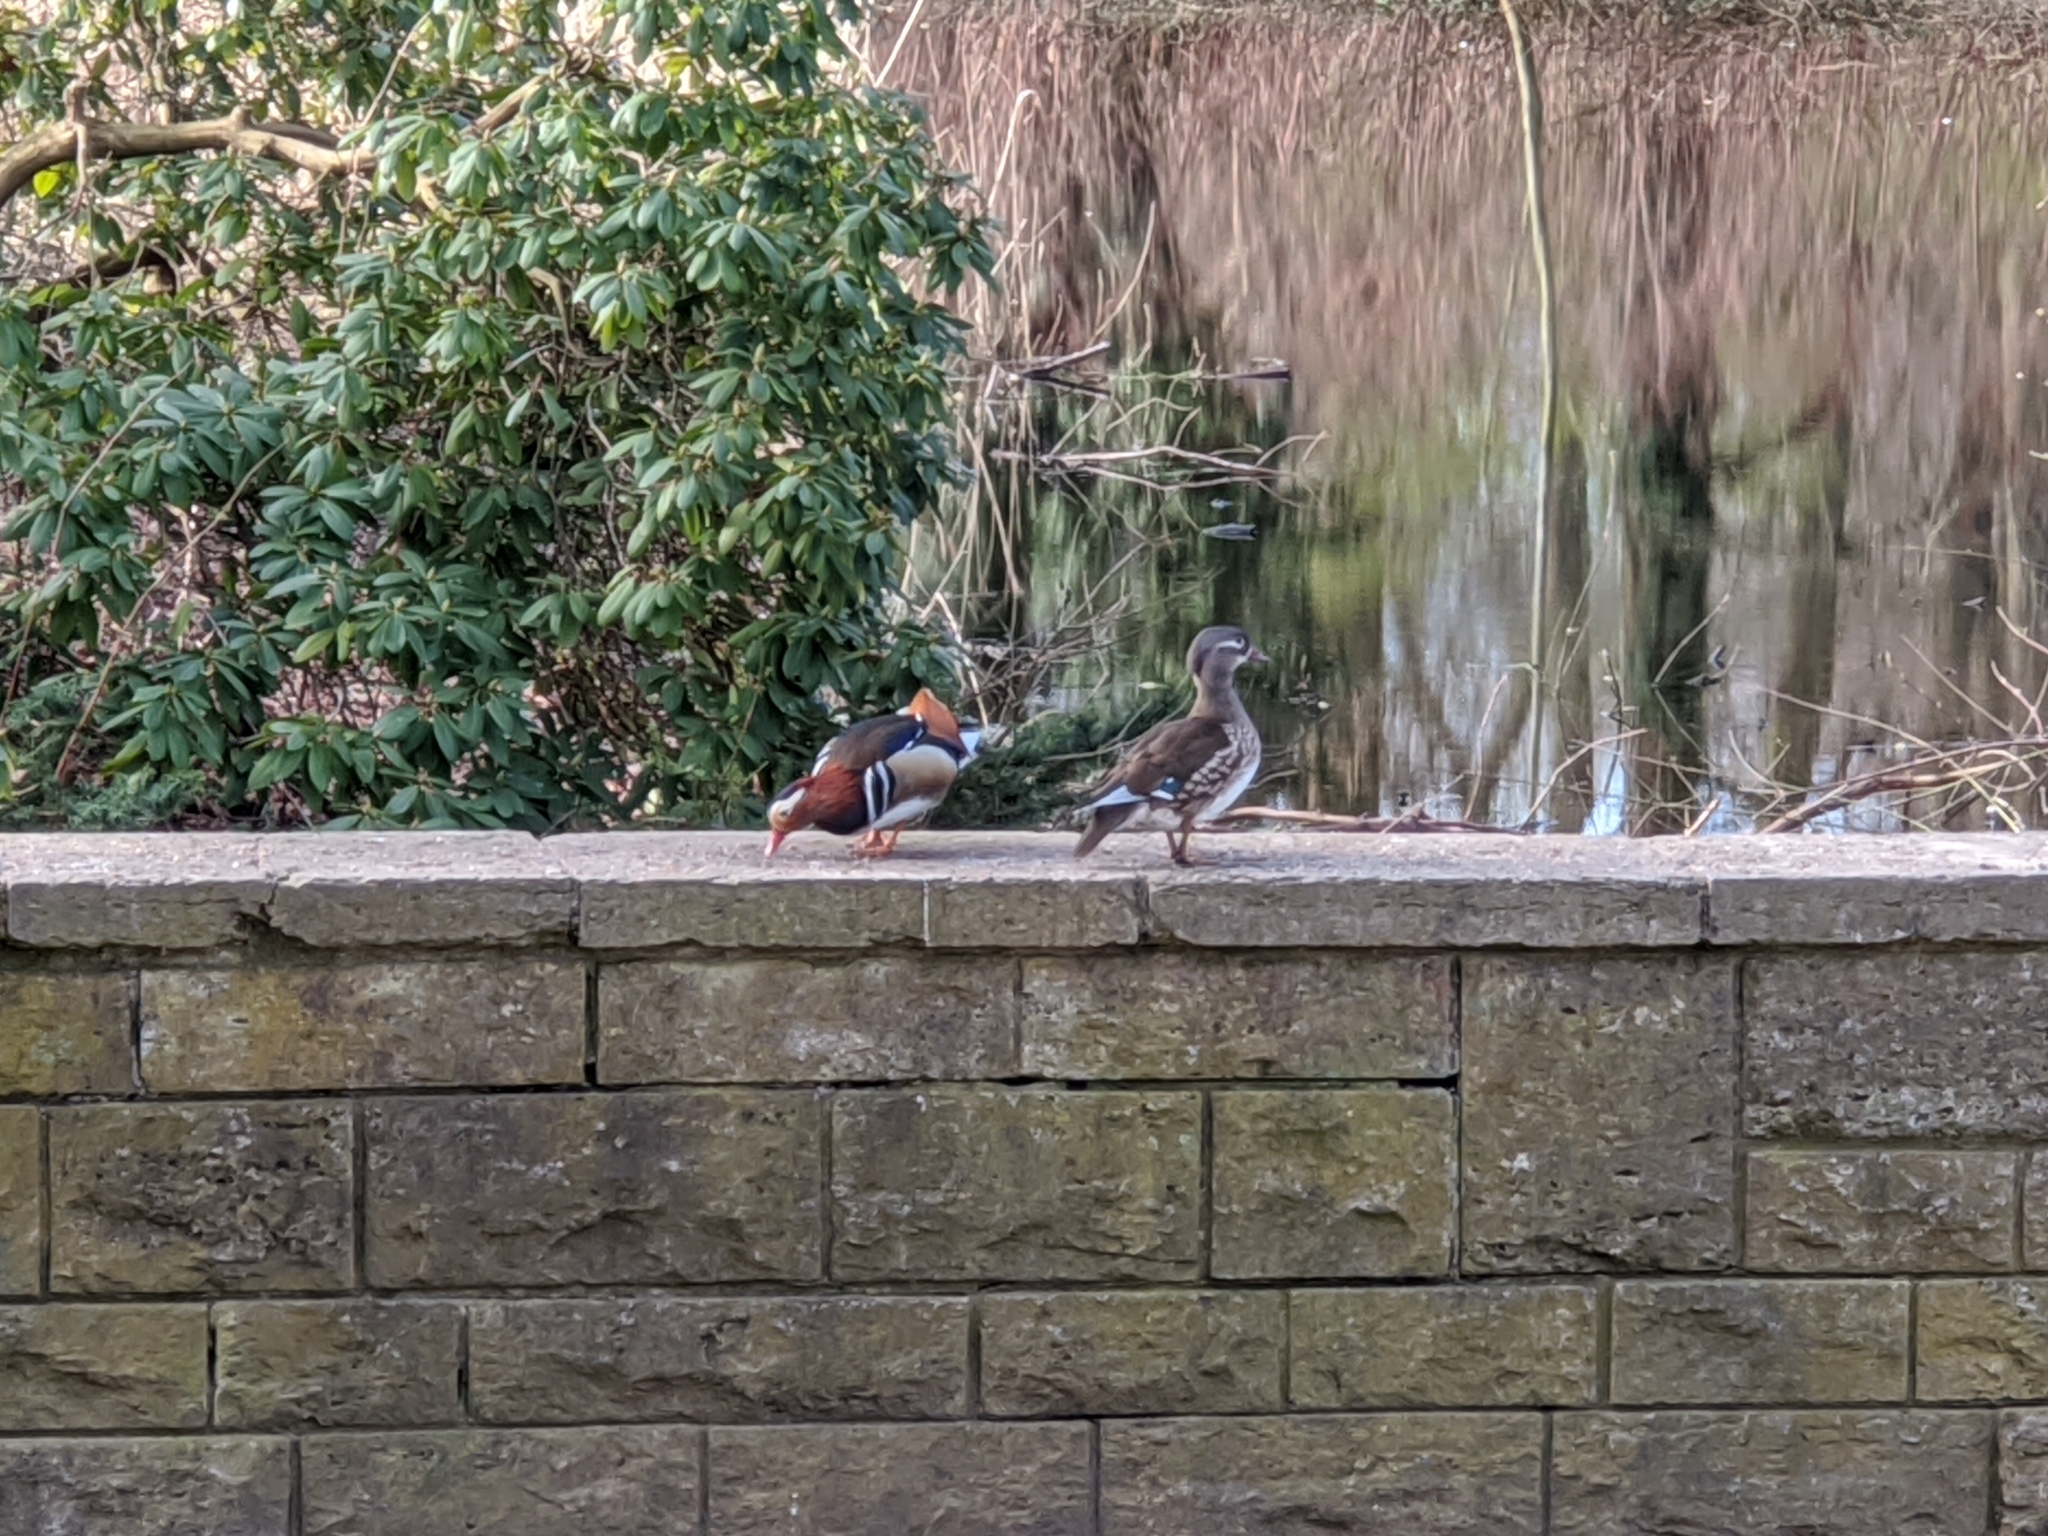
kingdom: Animalia
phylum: Chordata
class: Aves
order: Anseriformes
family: Anatidae
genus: Aix
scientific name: Aix galericulata
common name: Mandarin duck
